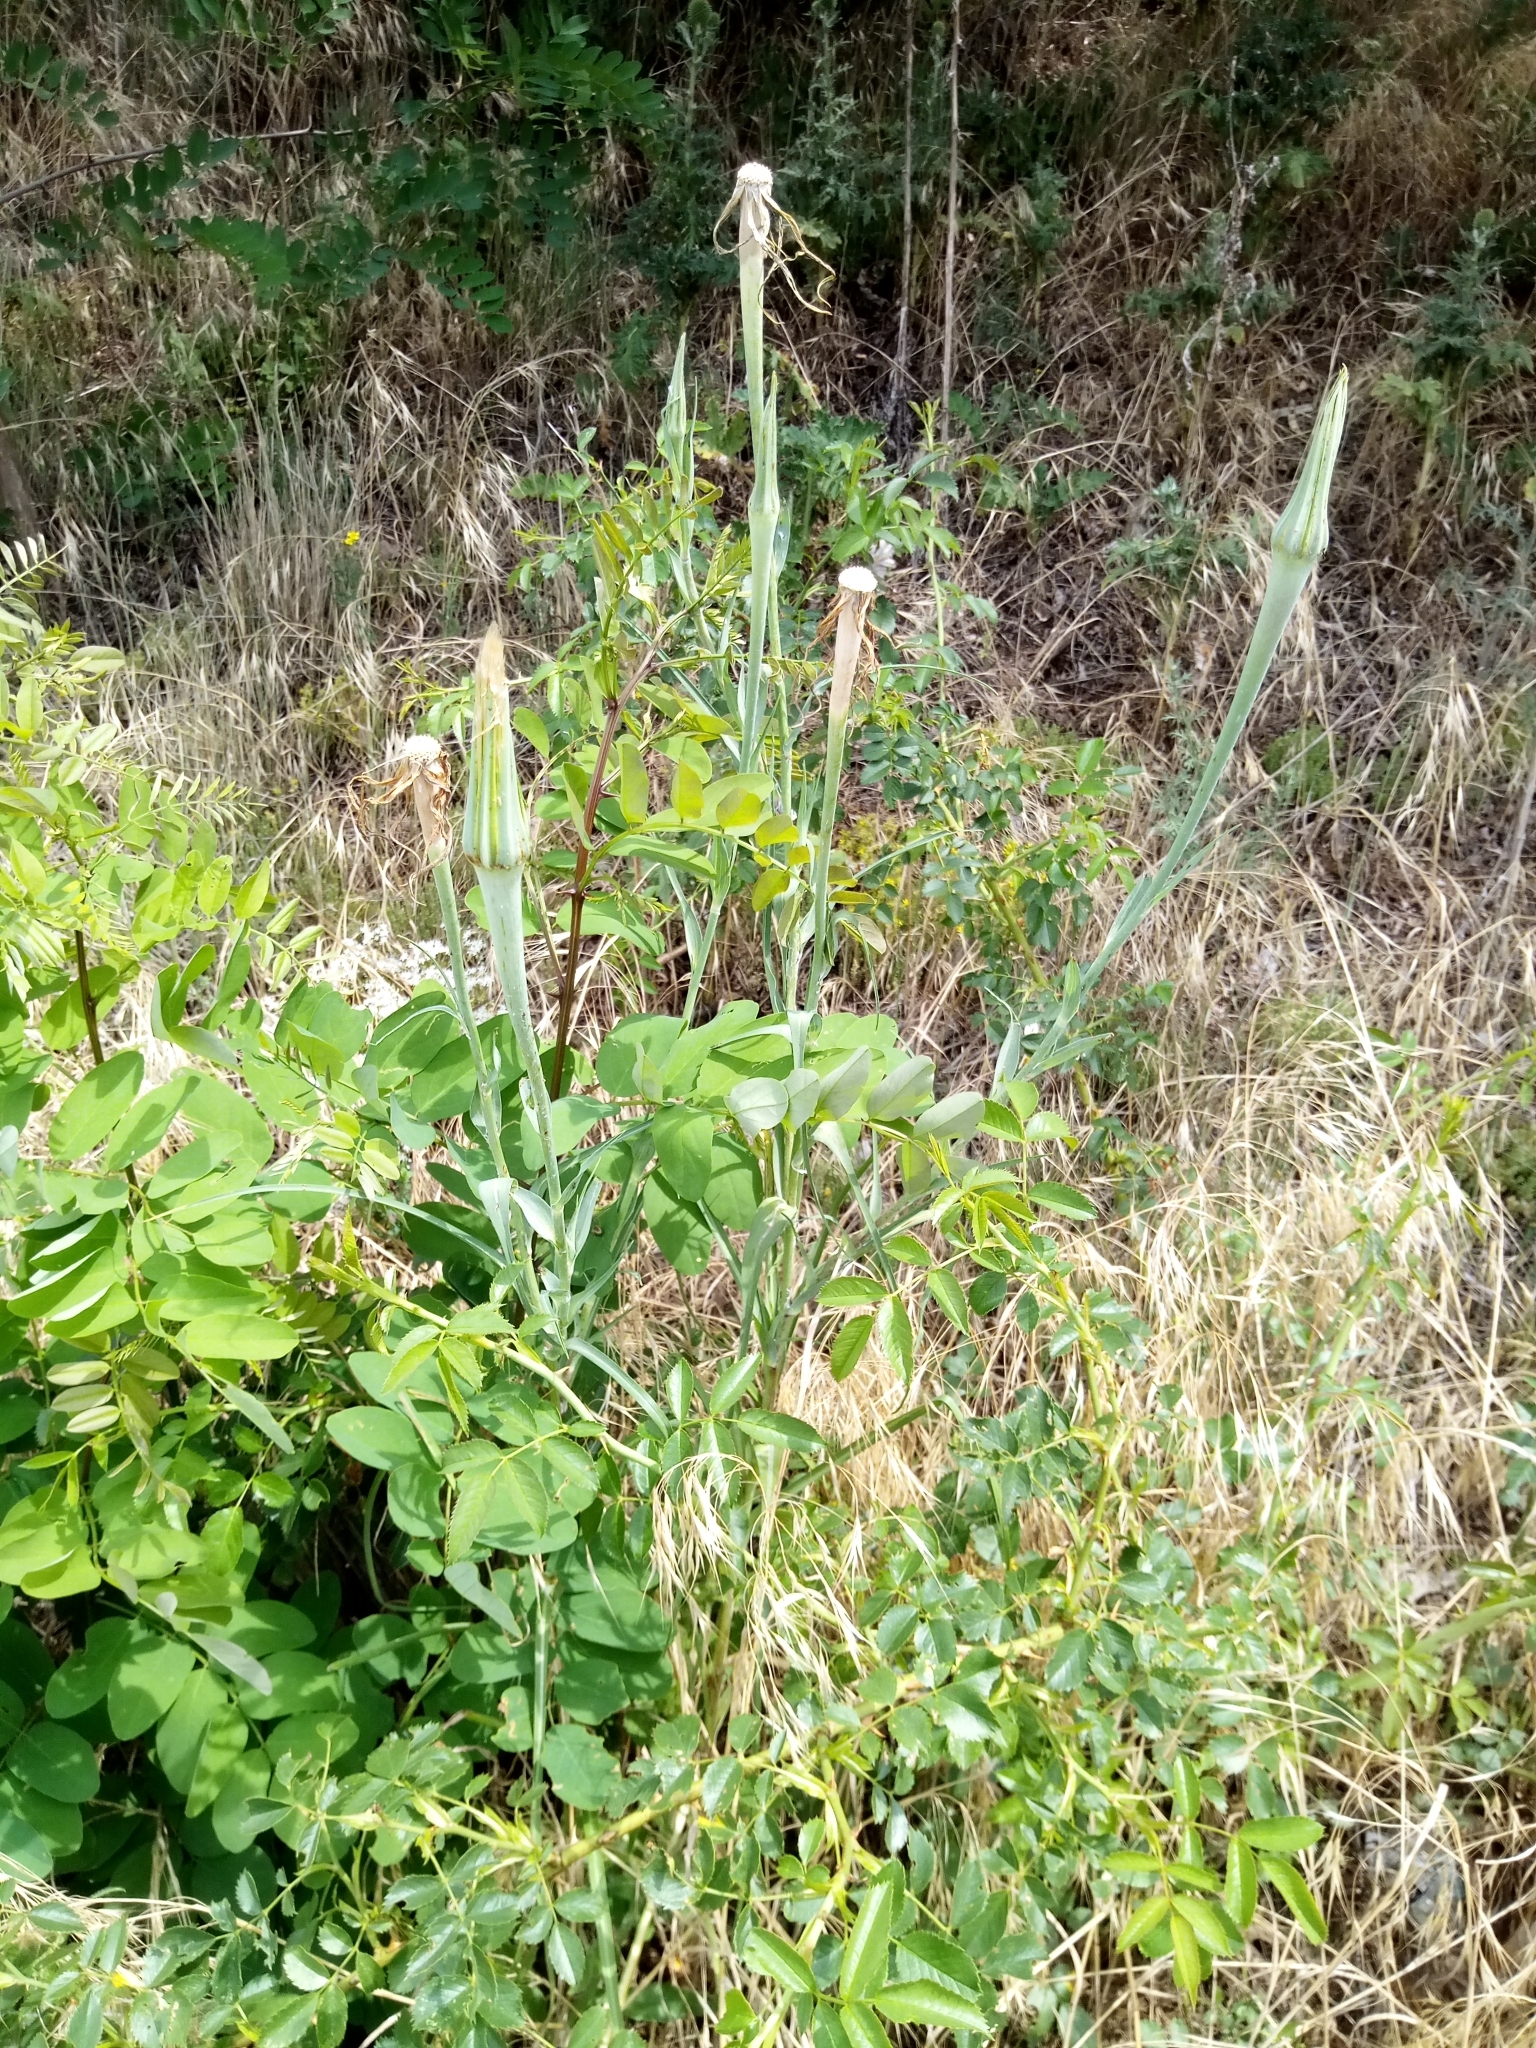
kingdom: Plantae
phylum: Tracheophyta
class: Magnoliopsida
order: Asterales
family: Asteraceae
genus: Tragopogon
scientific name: Tragopogon dubius
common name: Yellow salsify
